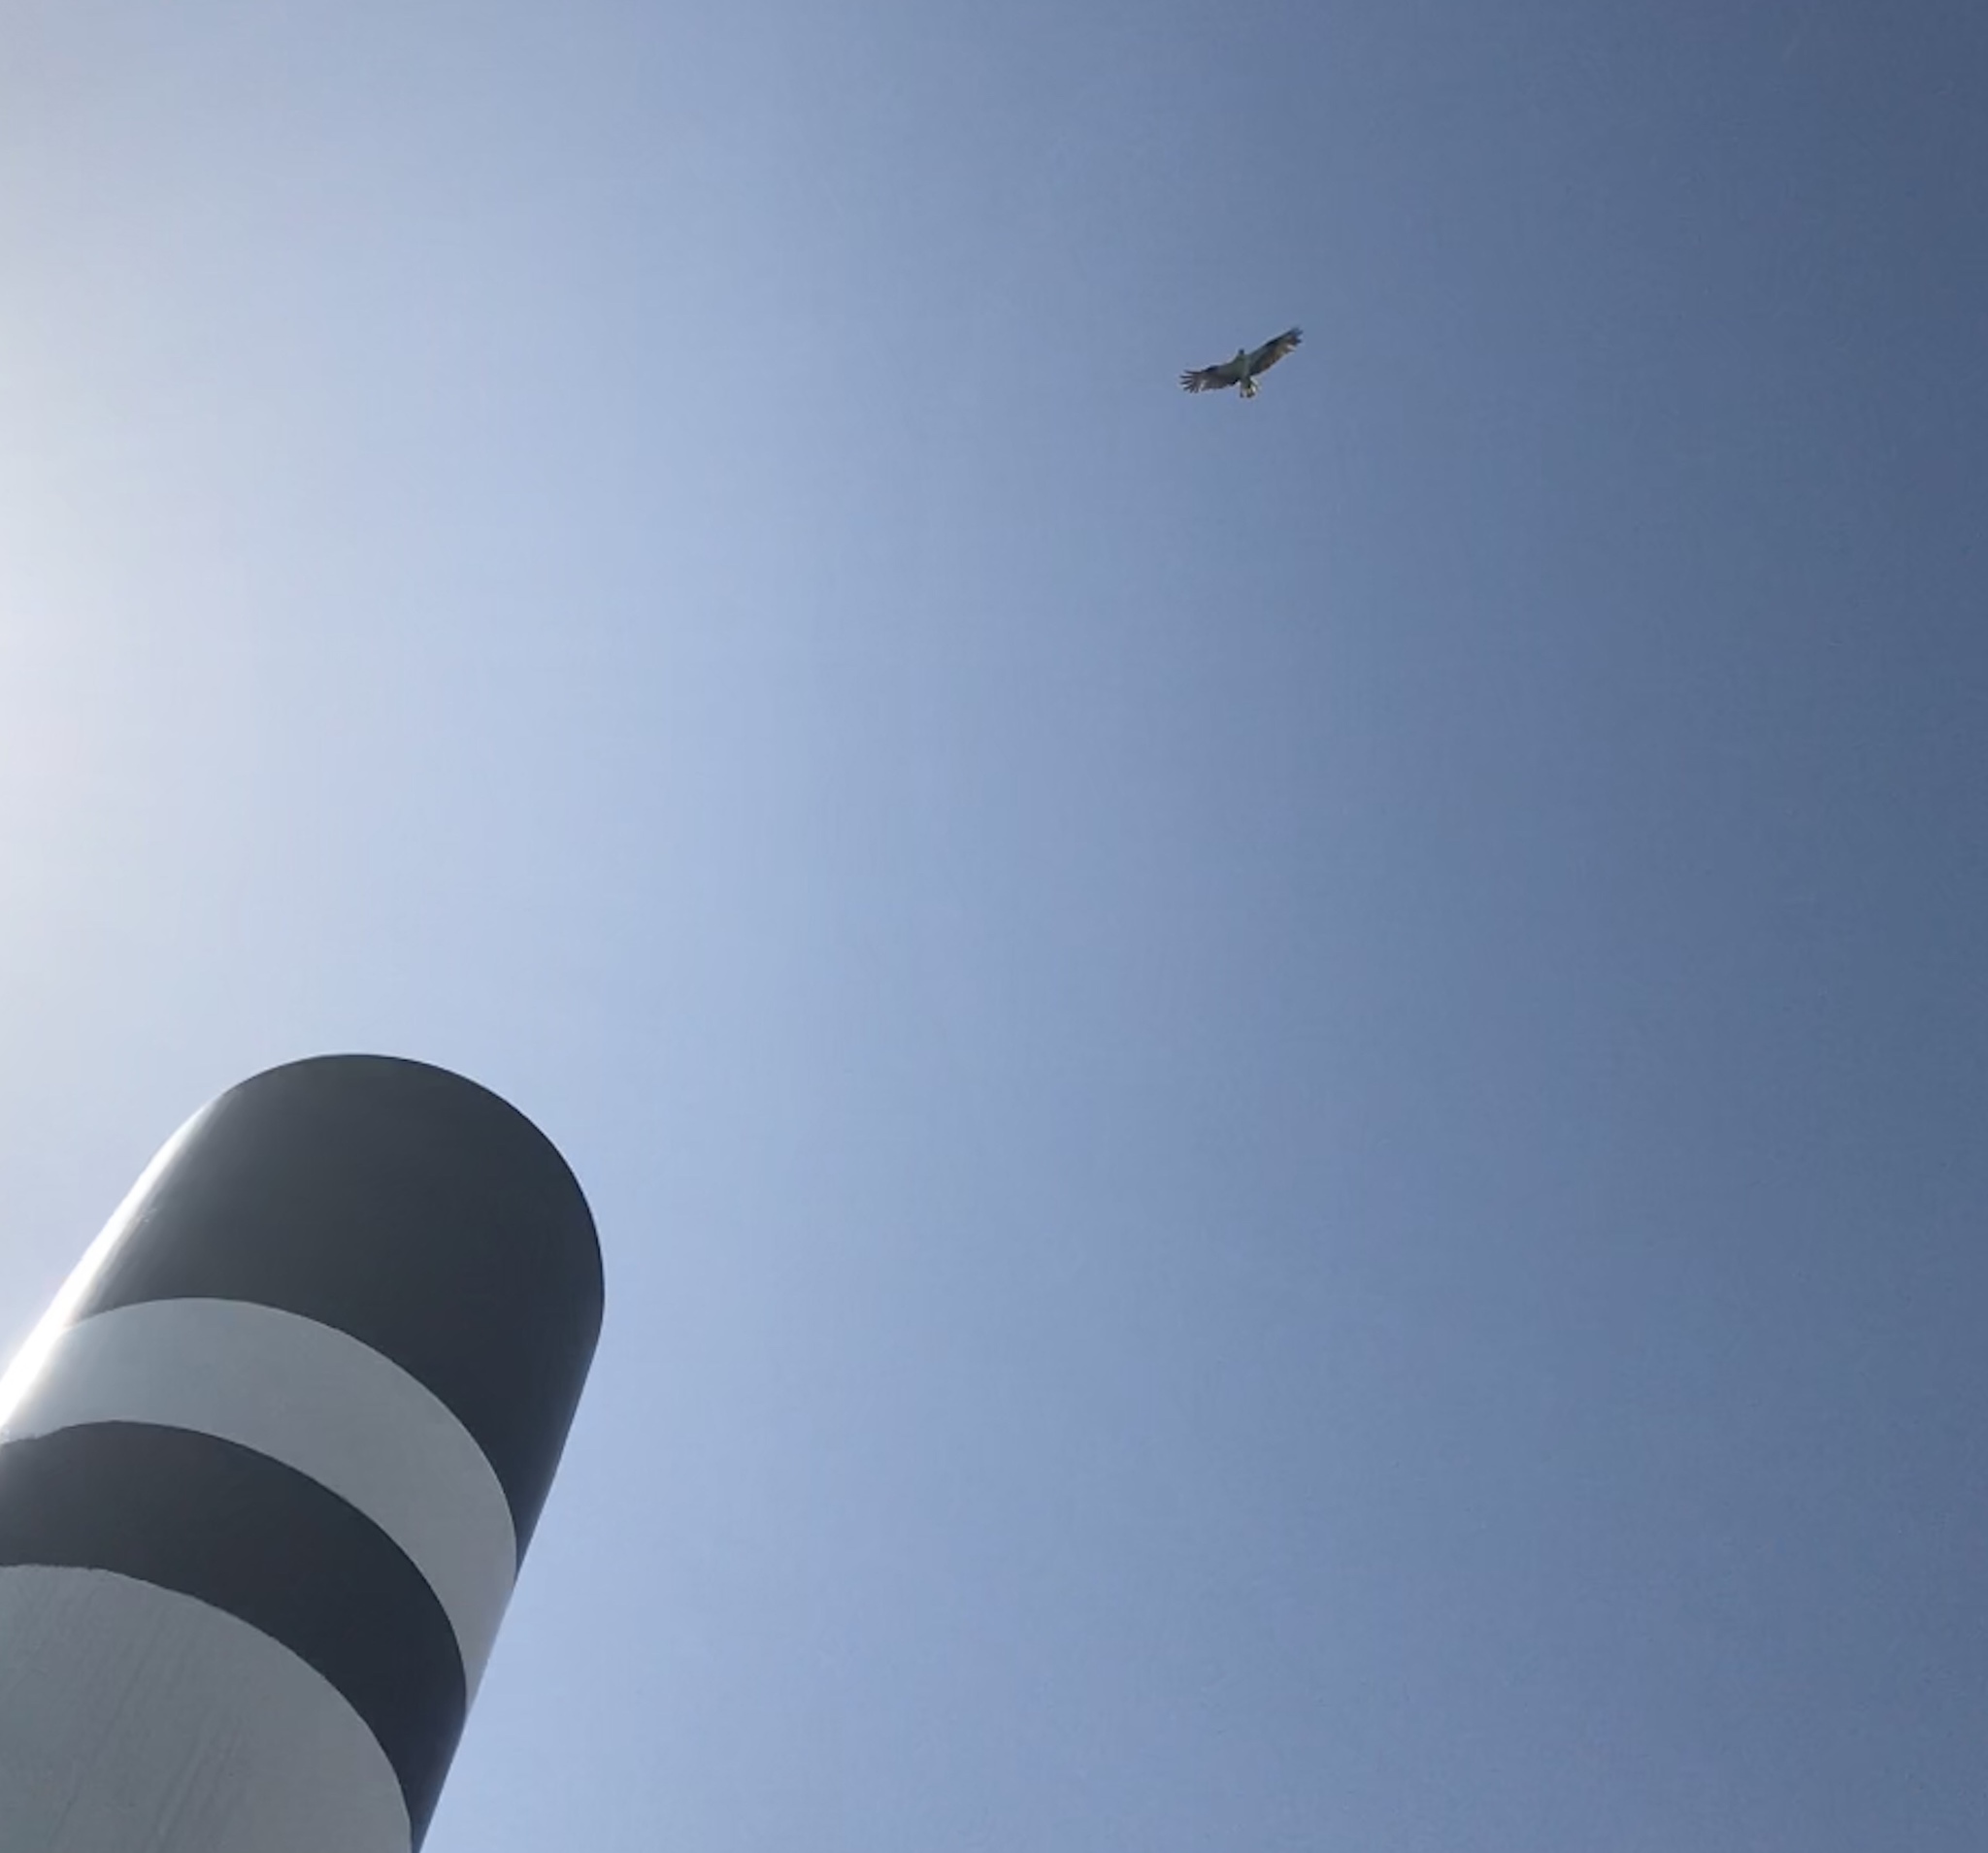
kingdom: Animalia
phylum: Chordata
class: Aves
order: Accipitriformes
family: Pandionidae
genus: Pandion
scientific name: Pandion haliaetus
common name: Osprey
